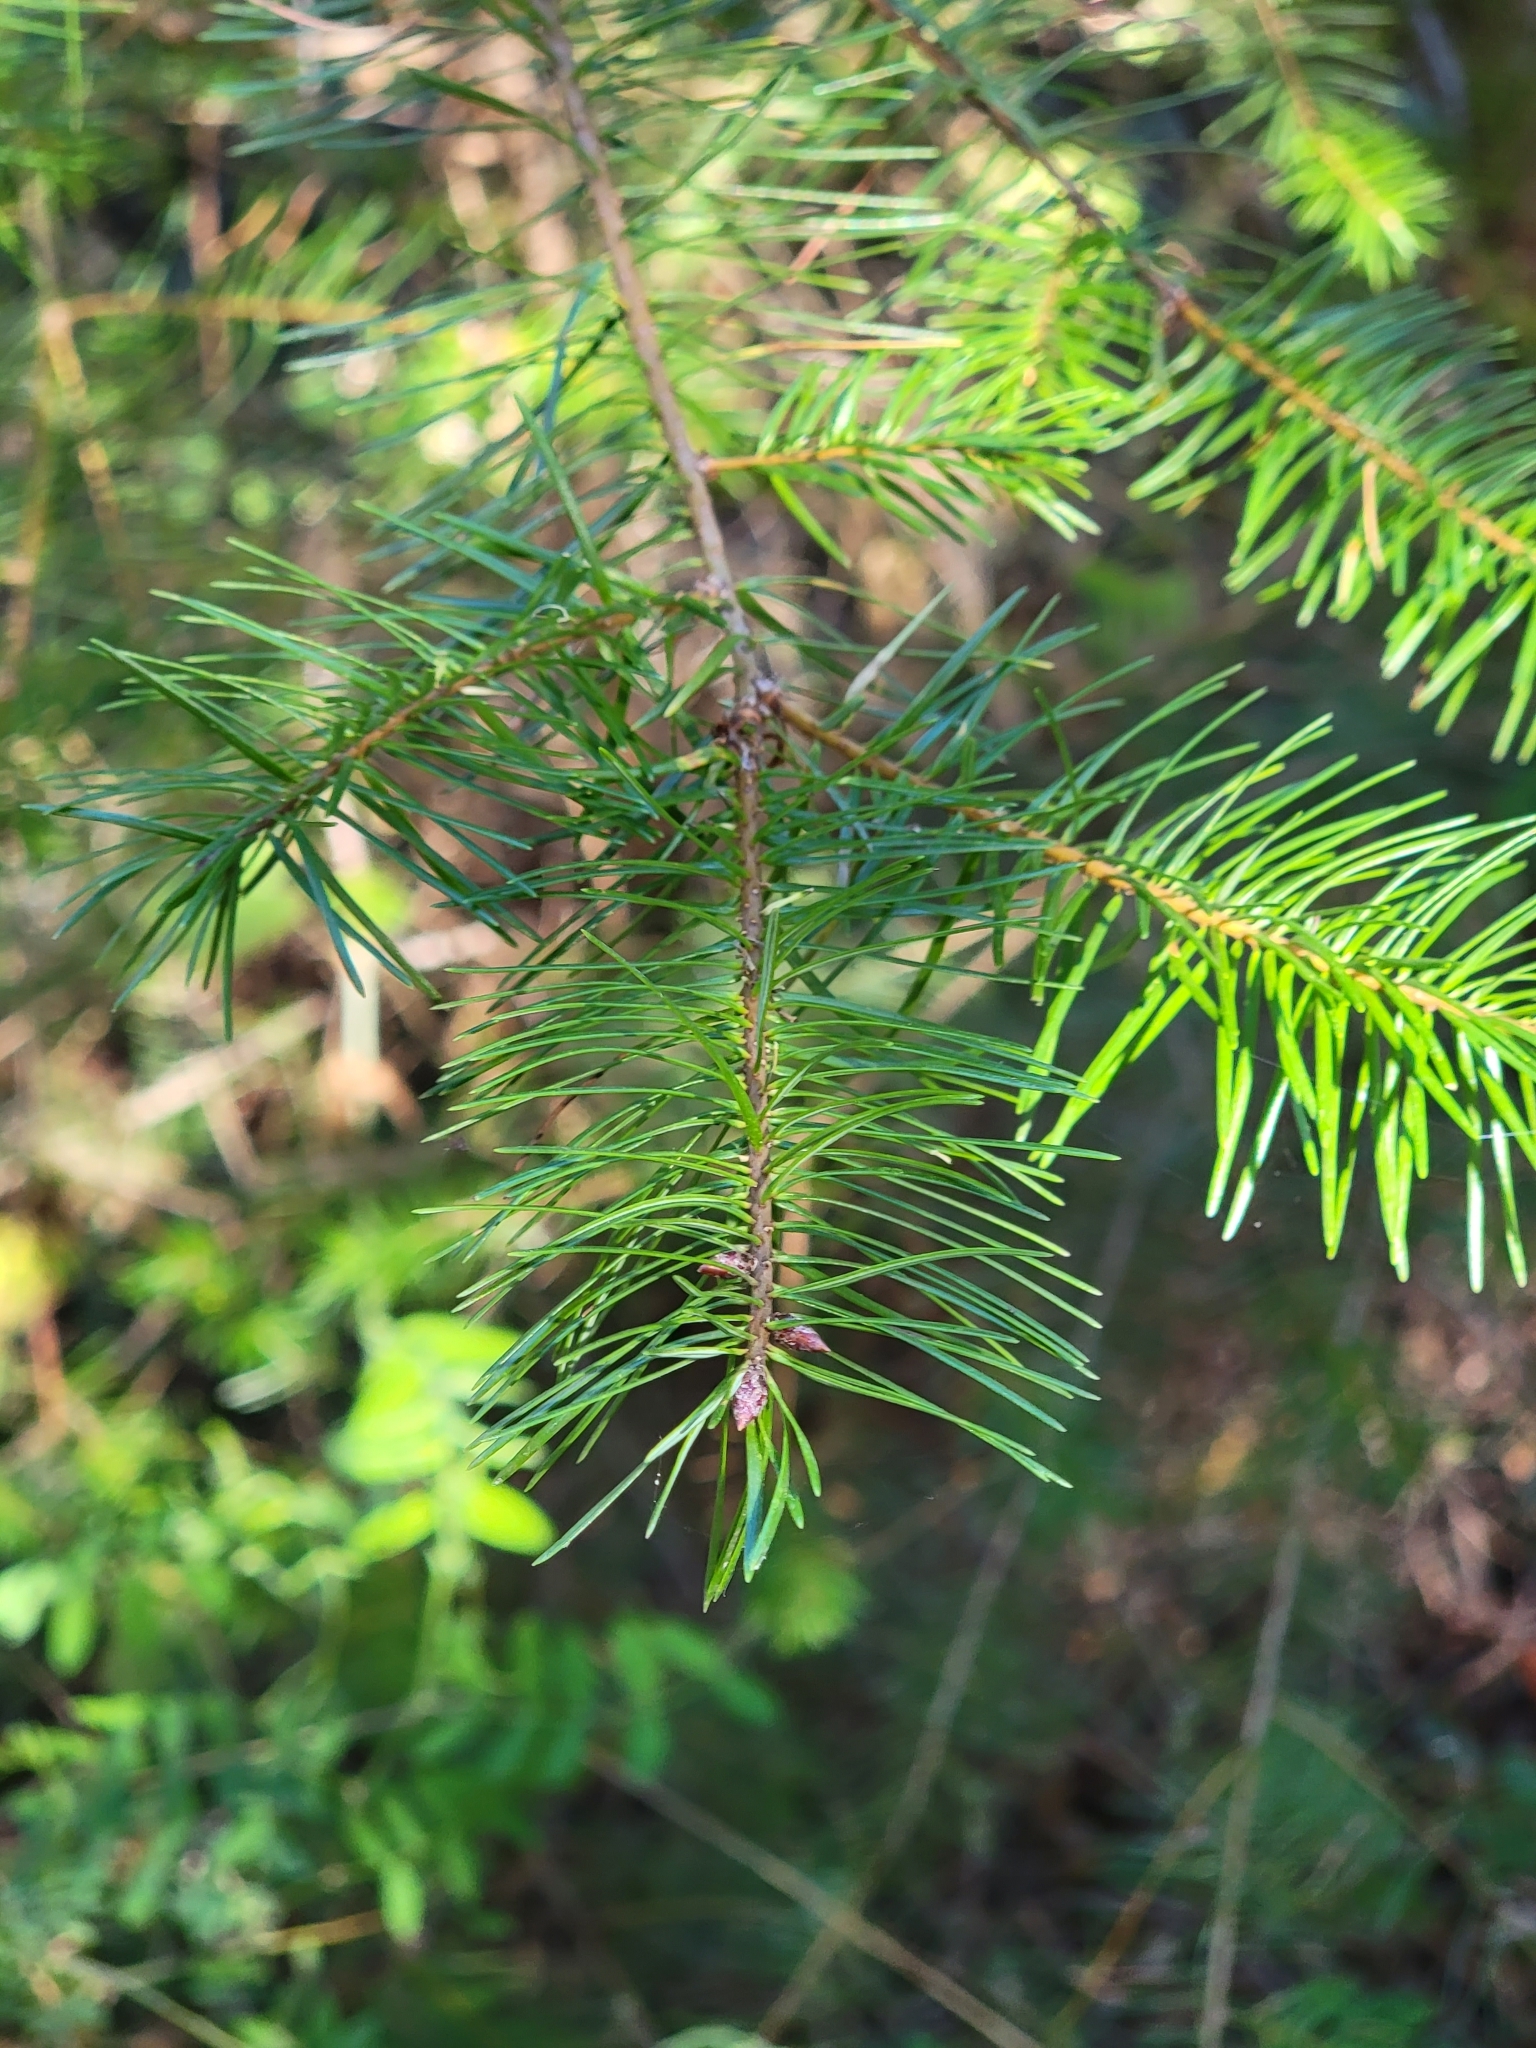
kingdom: Plantae
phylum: Tracheophyta
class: Pinopsida
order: Pinales
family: Pinaceae
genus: Pseudotsuga
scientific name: Pseudotsuga menziesii
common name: Douglas fir
